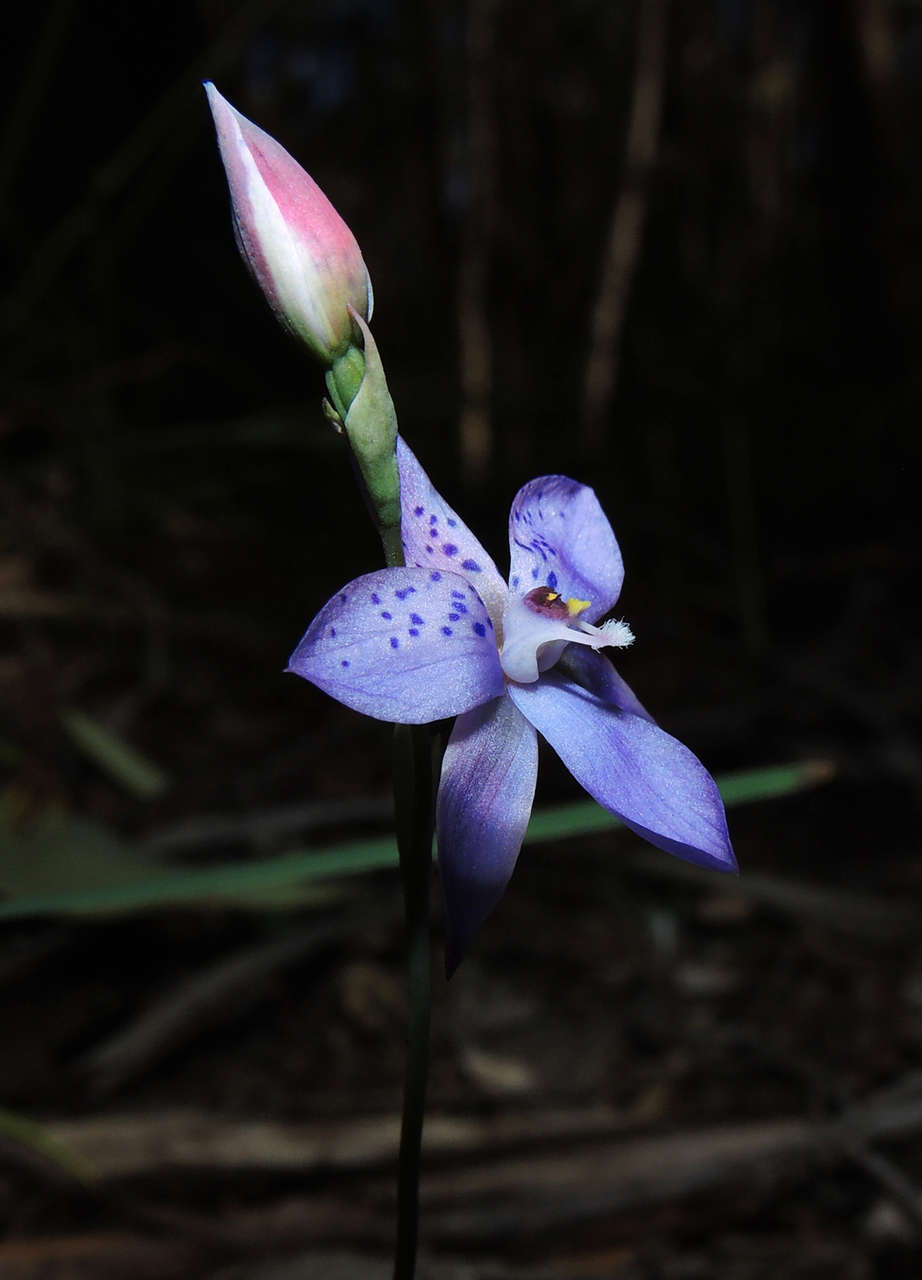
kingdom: Plantae
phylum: Tracheophyta
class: Liliopsida
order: Asparagales
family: Orchidaceae
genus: Thelymitra
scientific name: Thelymitra ixioides
